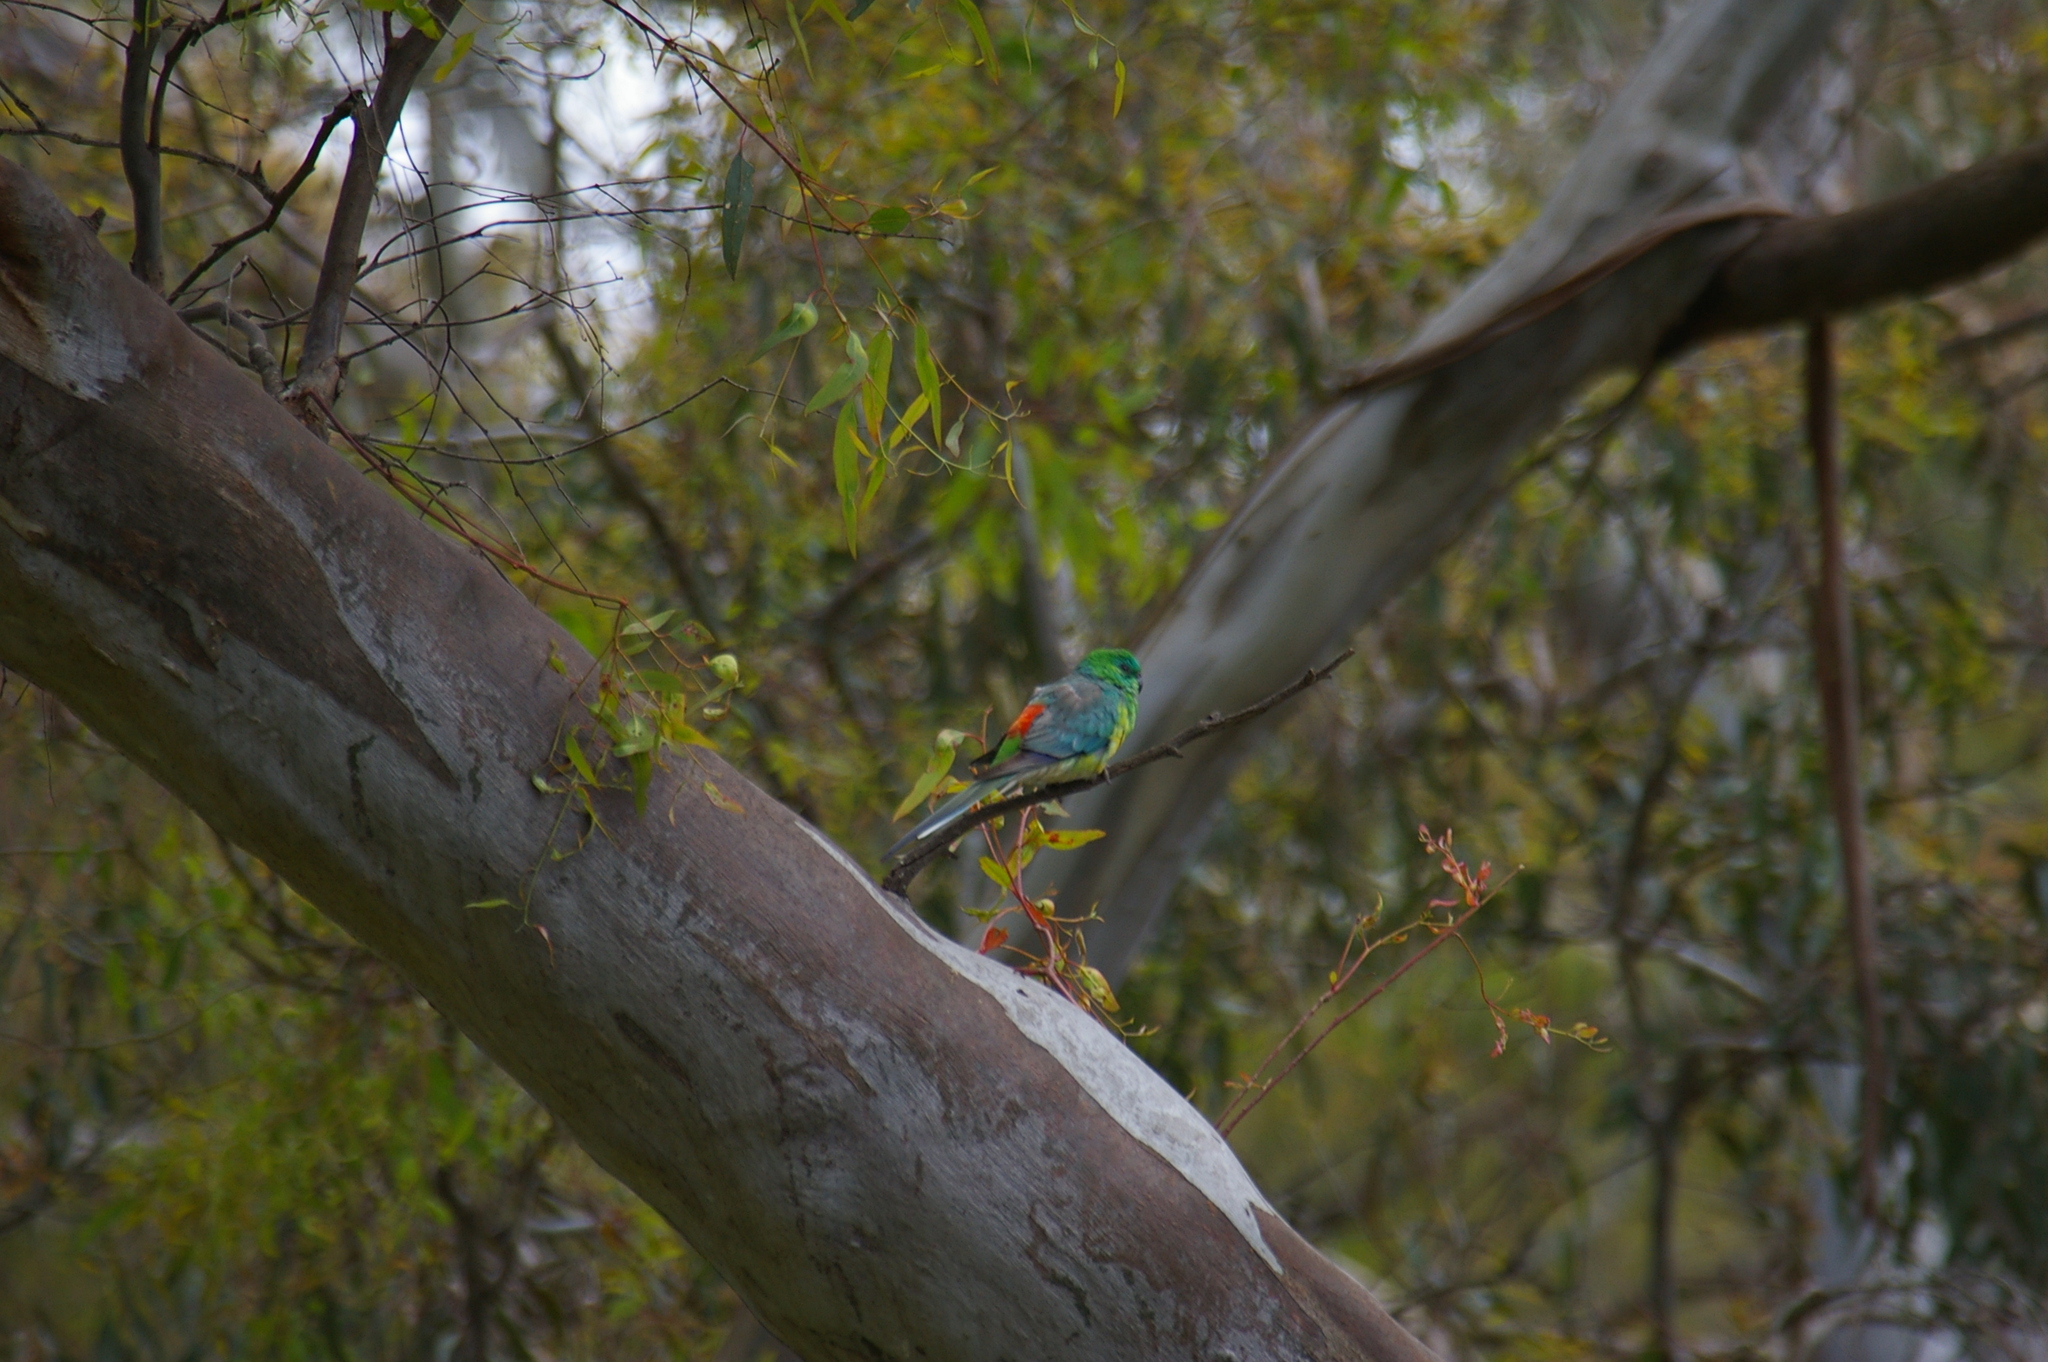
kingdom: Animalia
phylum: Chordata
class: Aves
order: Psittaciformes
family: Psittacidae
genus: Psephotus
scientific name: Psephotus haematonotus
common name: Red-rumped parrot
